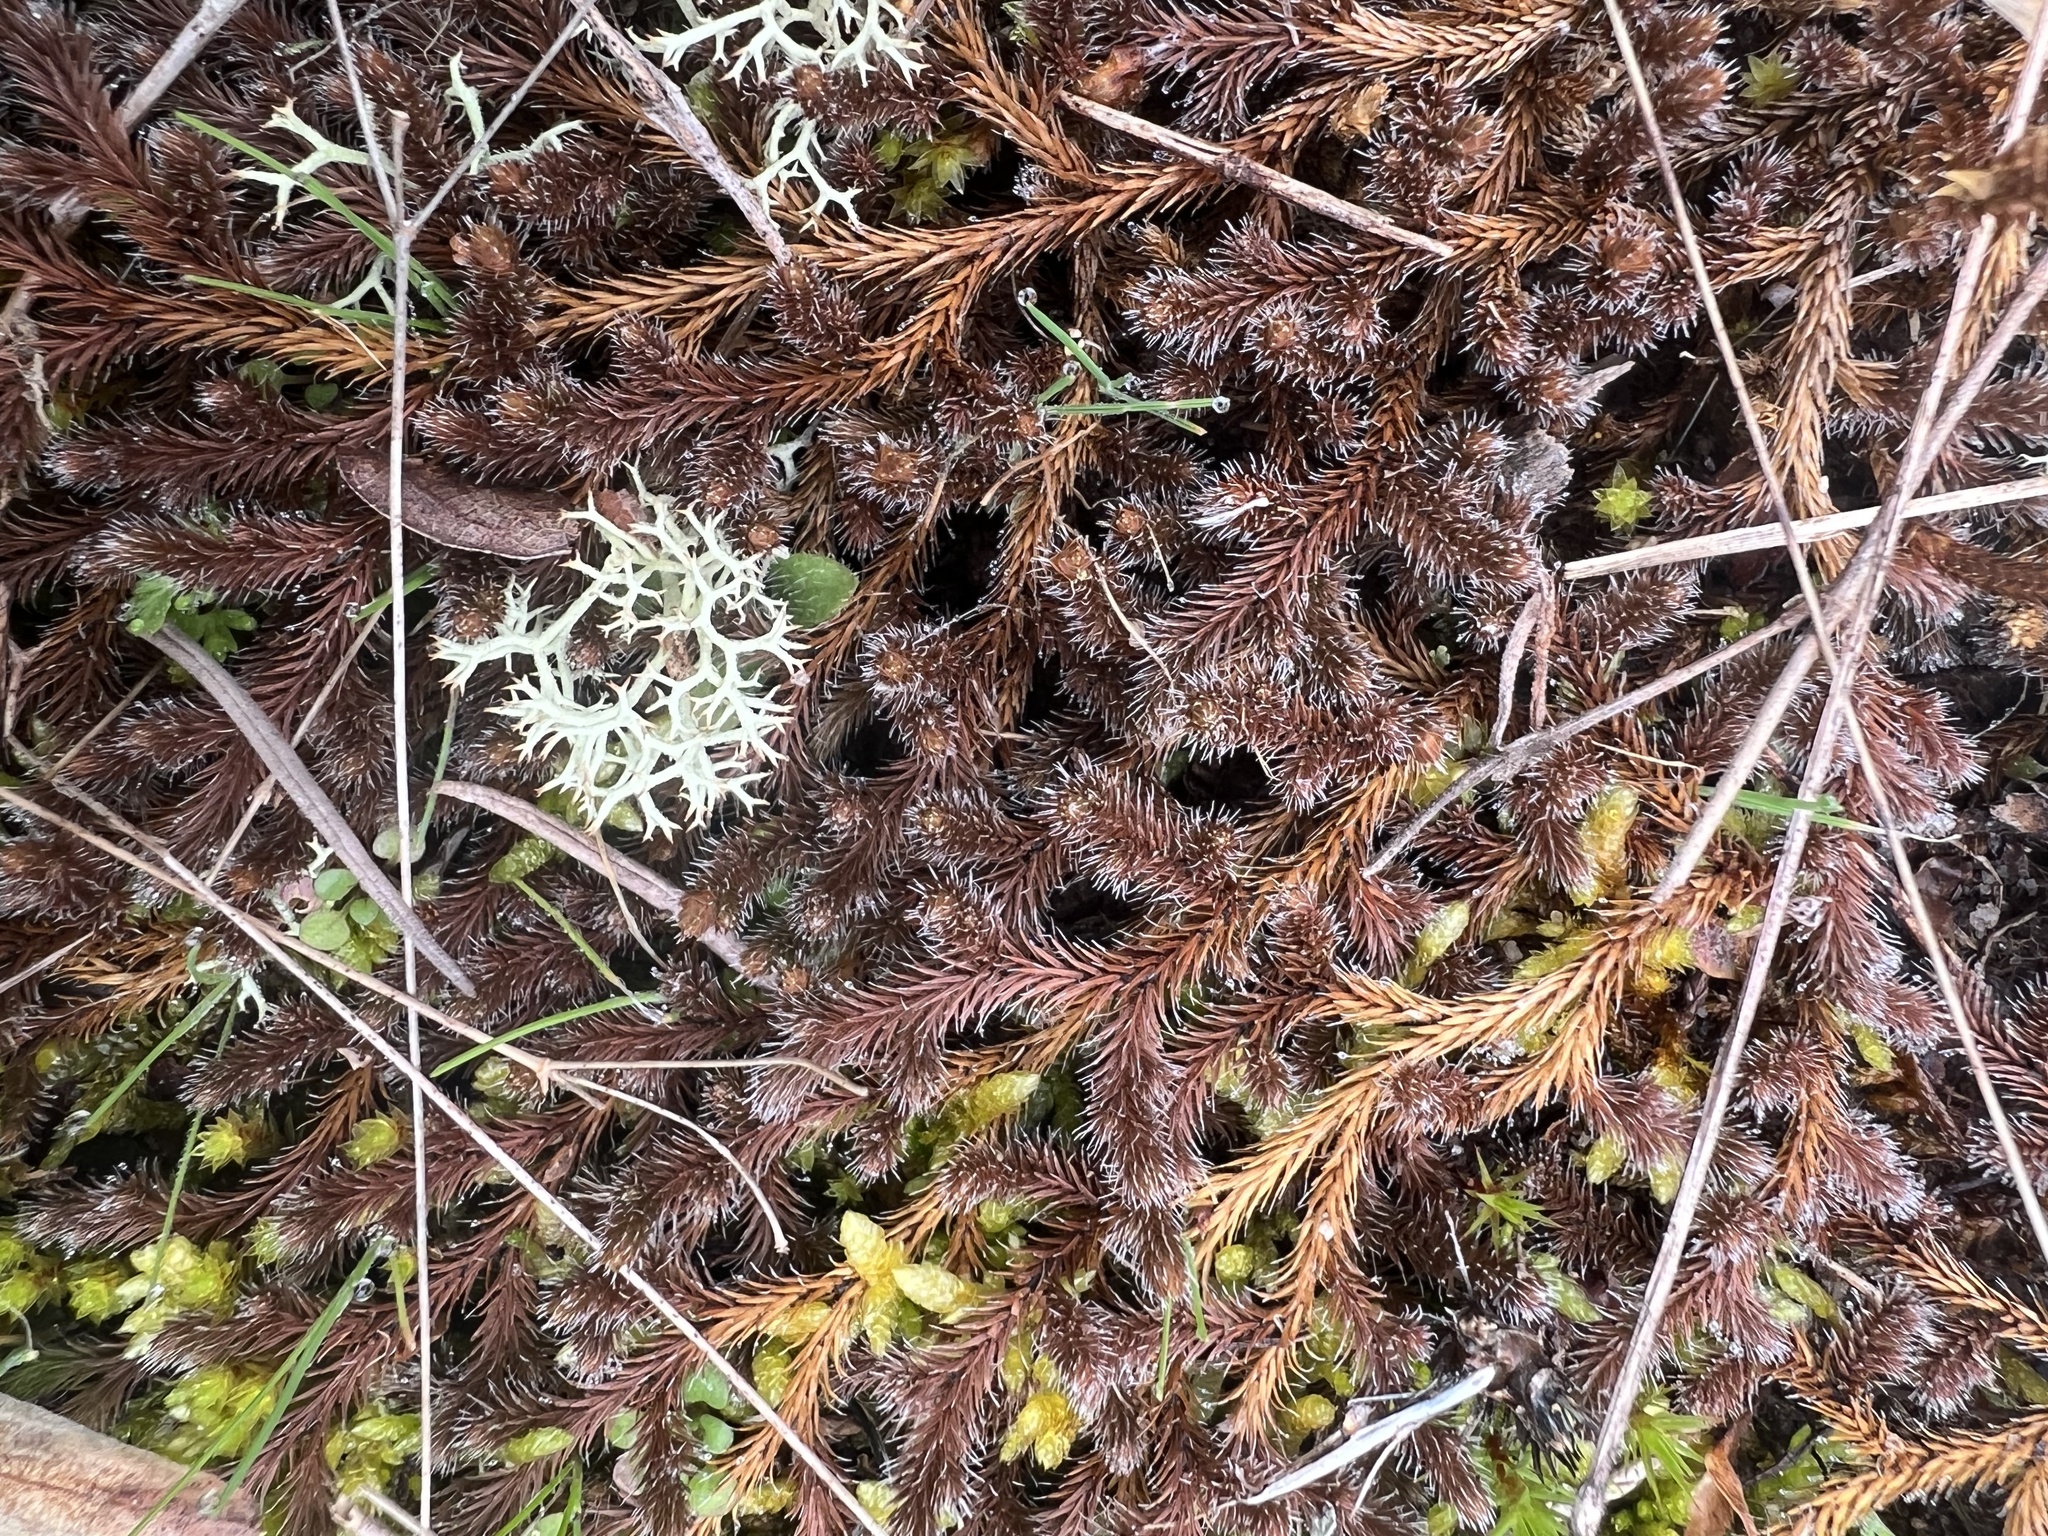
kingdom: Plantae
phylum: Tracheophyta
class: Lycopodiopsida
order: Selaginellales
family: Selaginellaceae
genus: Selaginella
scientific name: Selaginella rupestris
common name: Dwarf spikemoss
